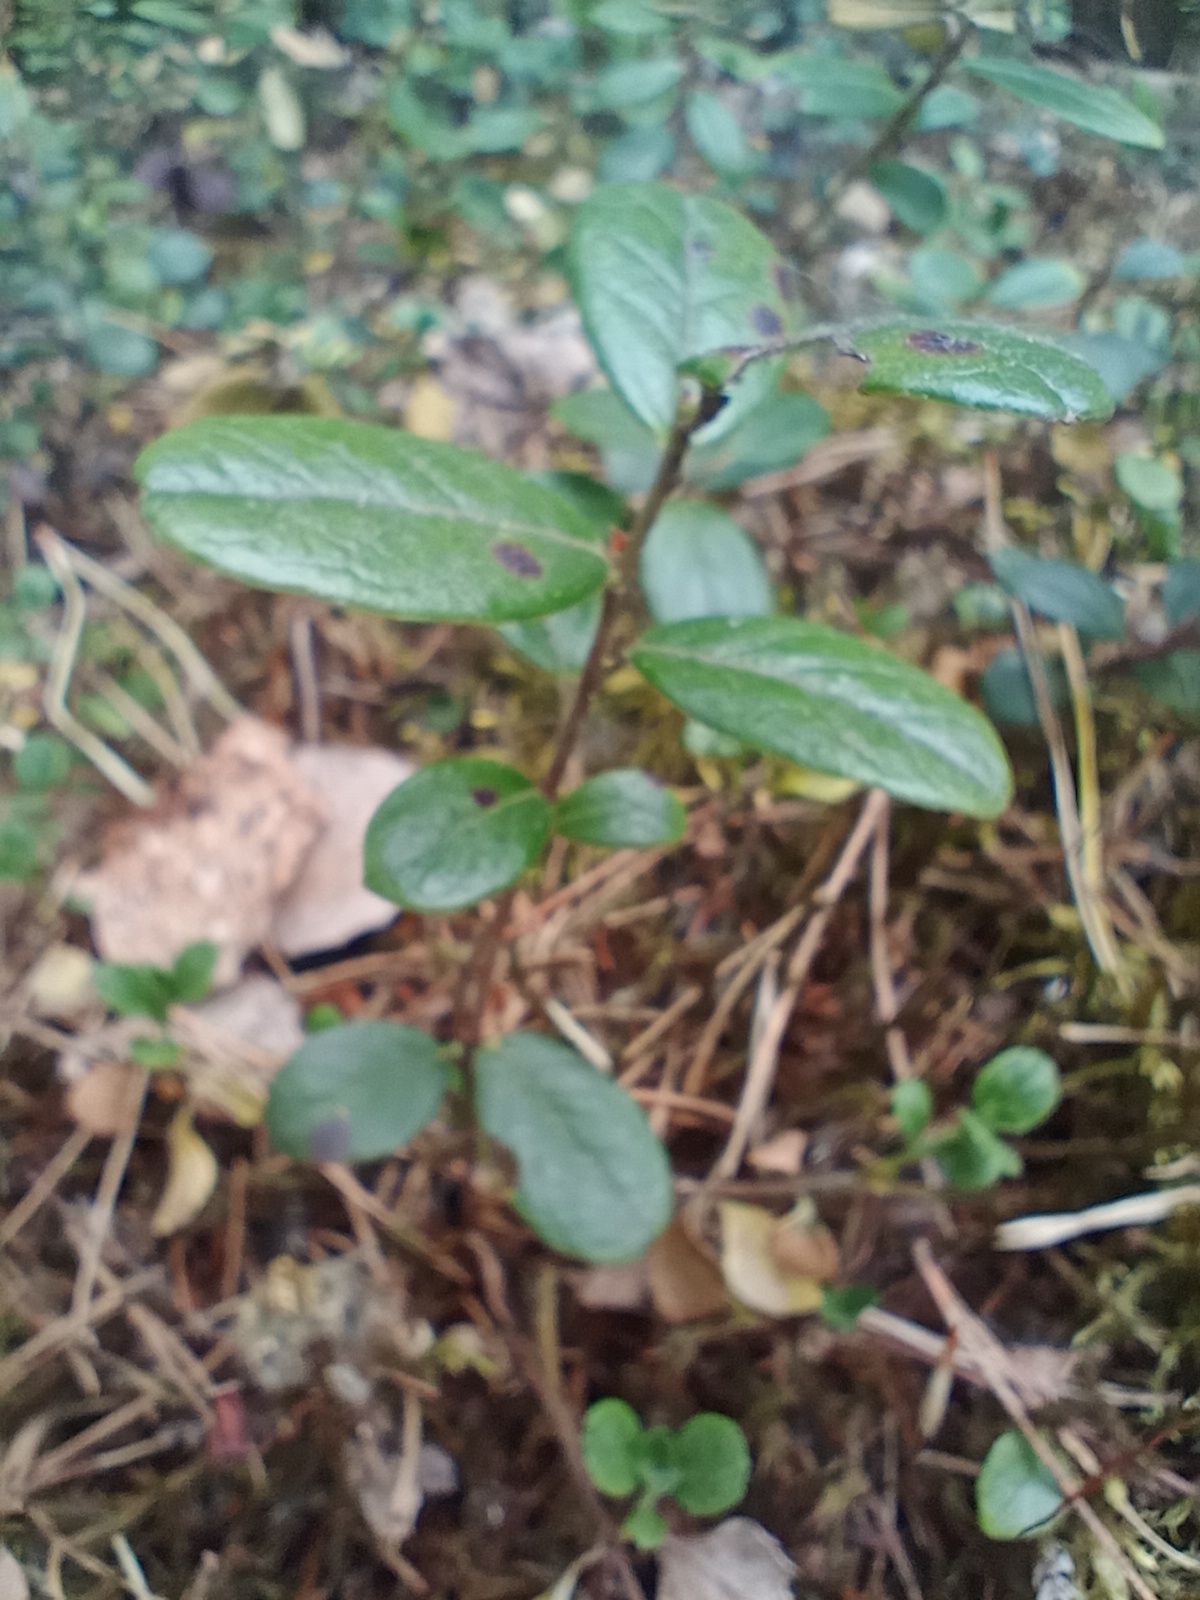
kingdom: Plantae
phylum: Tracheophyta
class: Magnoliopsida
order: Ericales
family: Ericaceae
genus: Vaccinium
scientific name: Vaccinium vitis-idaea
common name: Cowberry
